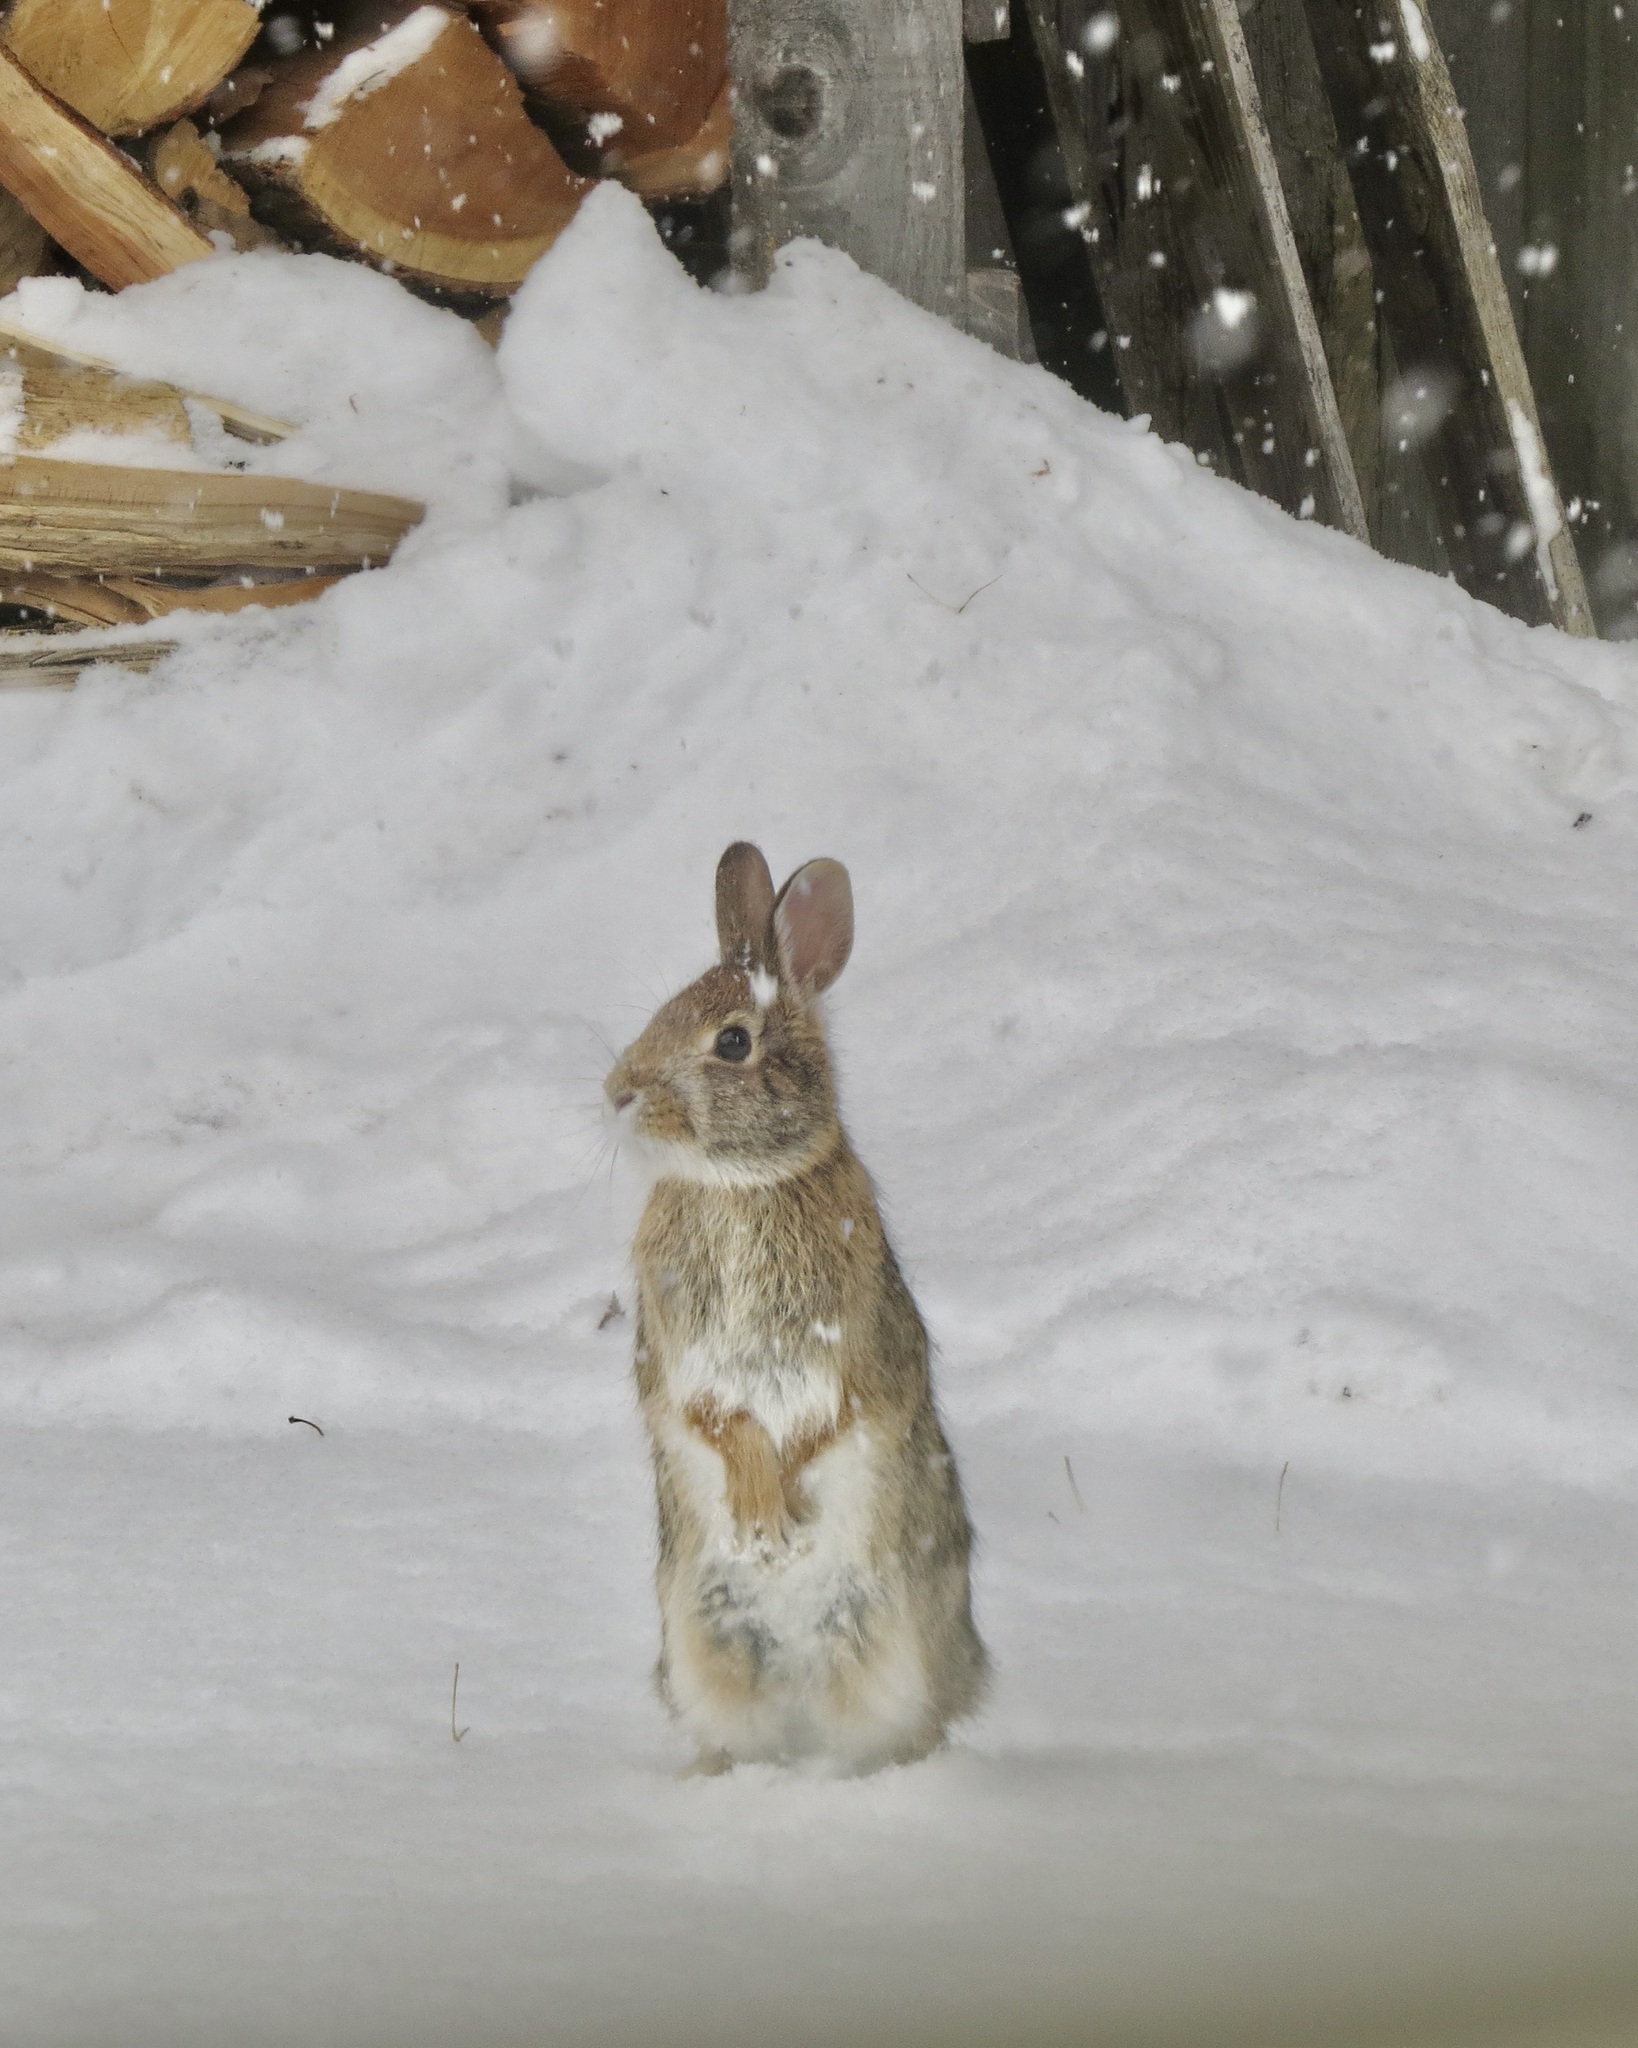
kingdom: Animalia
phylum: Chordata
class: Mammalia
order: Lagomorpha
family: Leporidae
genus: Sylvilagus
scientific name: Sylvilagus floridanus
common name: Eastern cottontail
